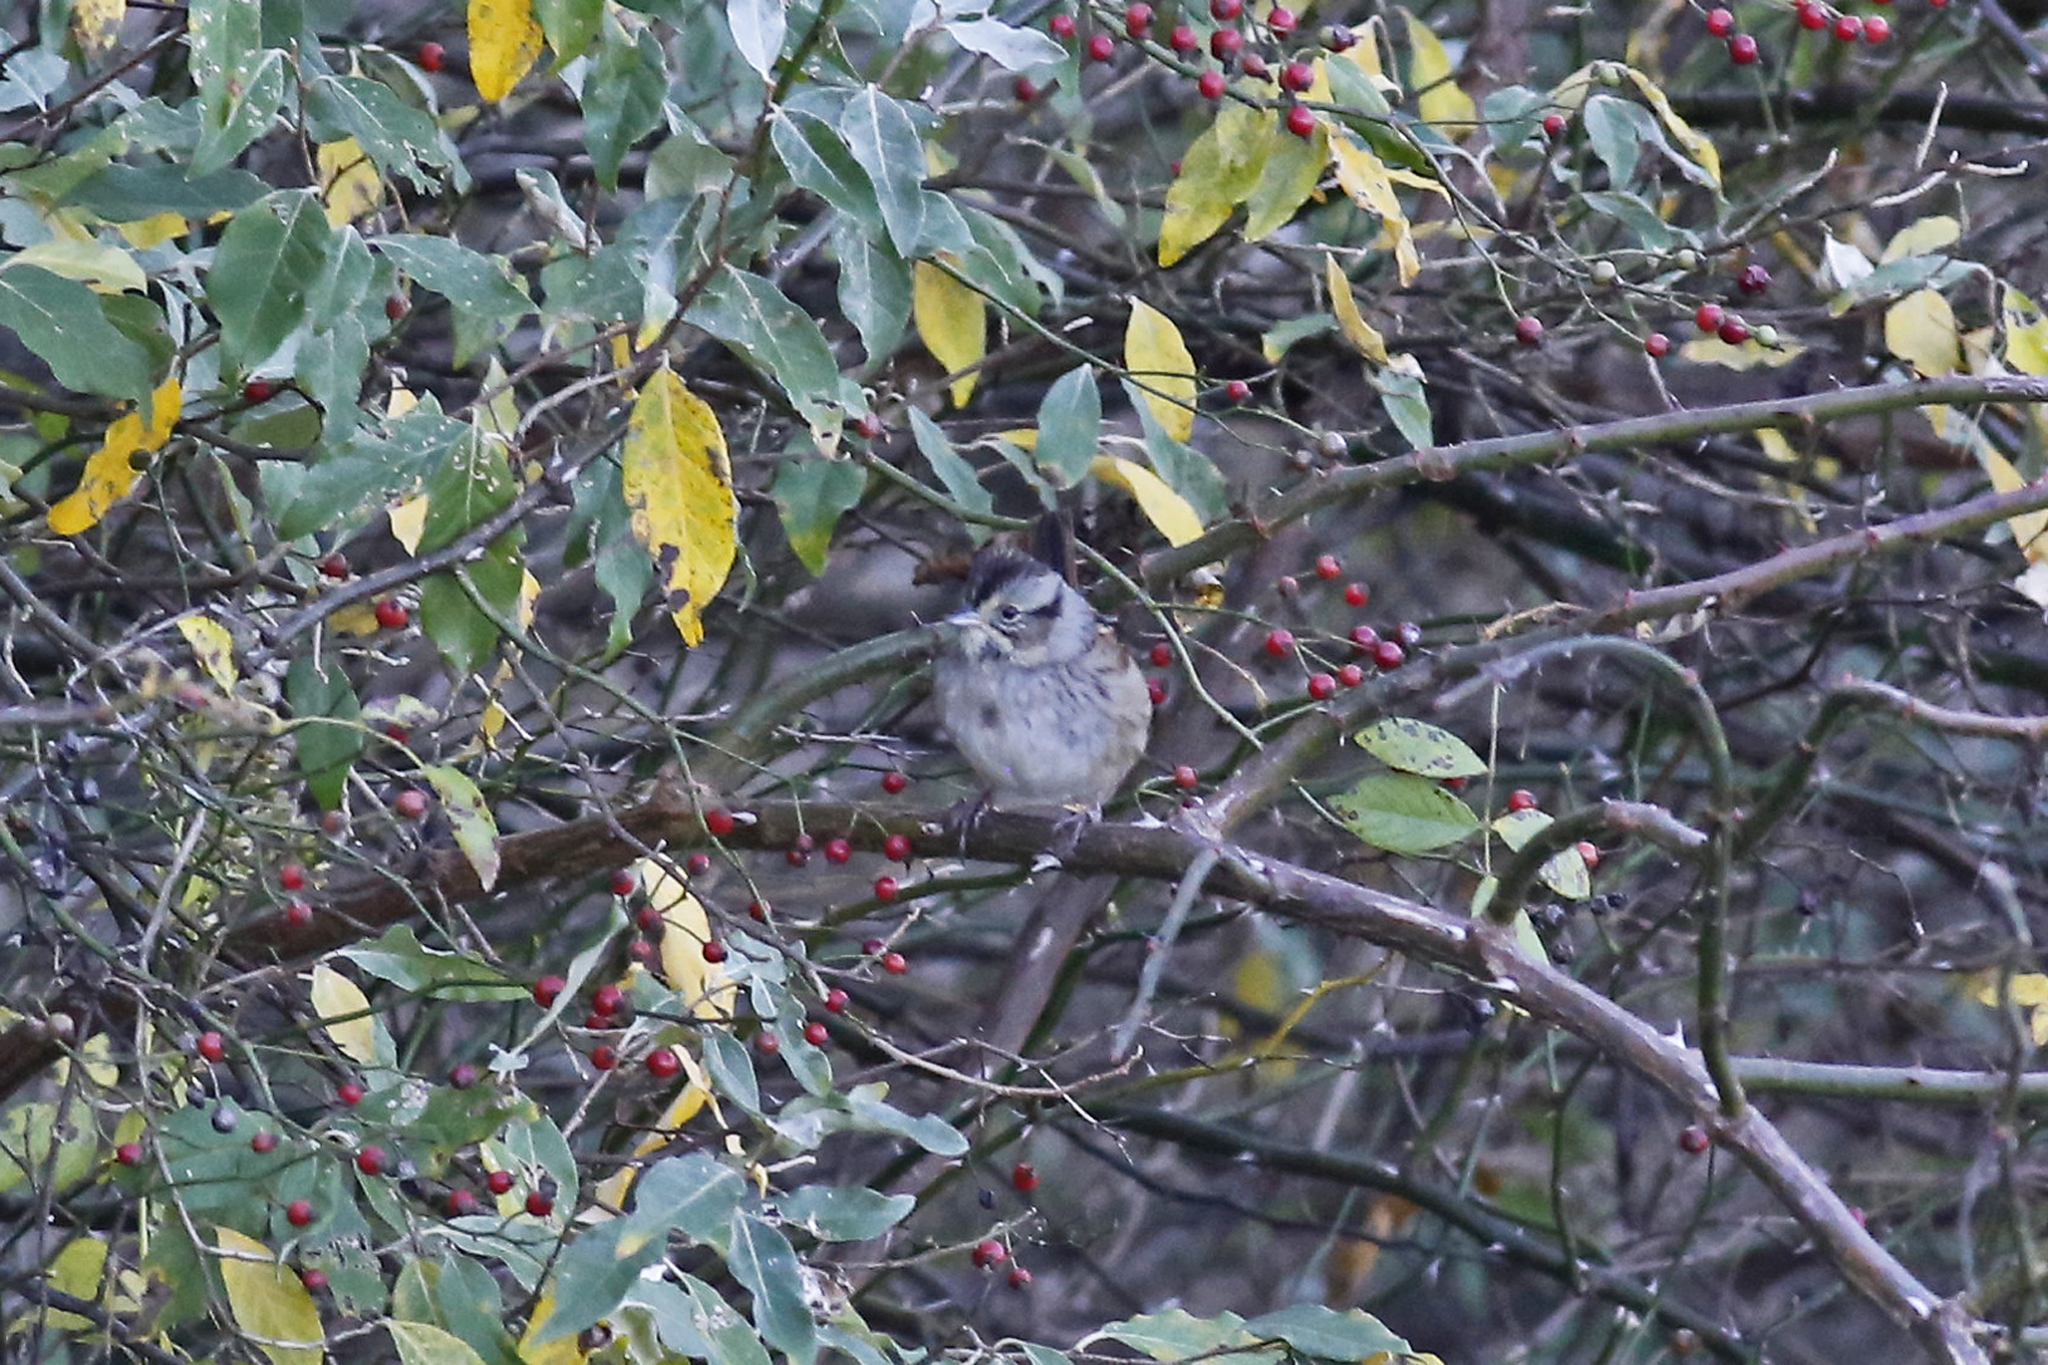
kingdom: Animalia
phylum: Chordata
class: Aves
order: Passeriformes
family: Passerellidae
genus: Melospiza
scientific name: Melospiza georgiana
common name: Swamp sparrow
